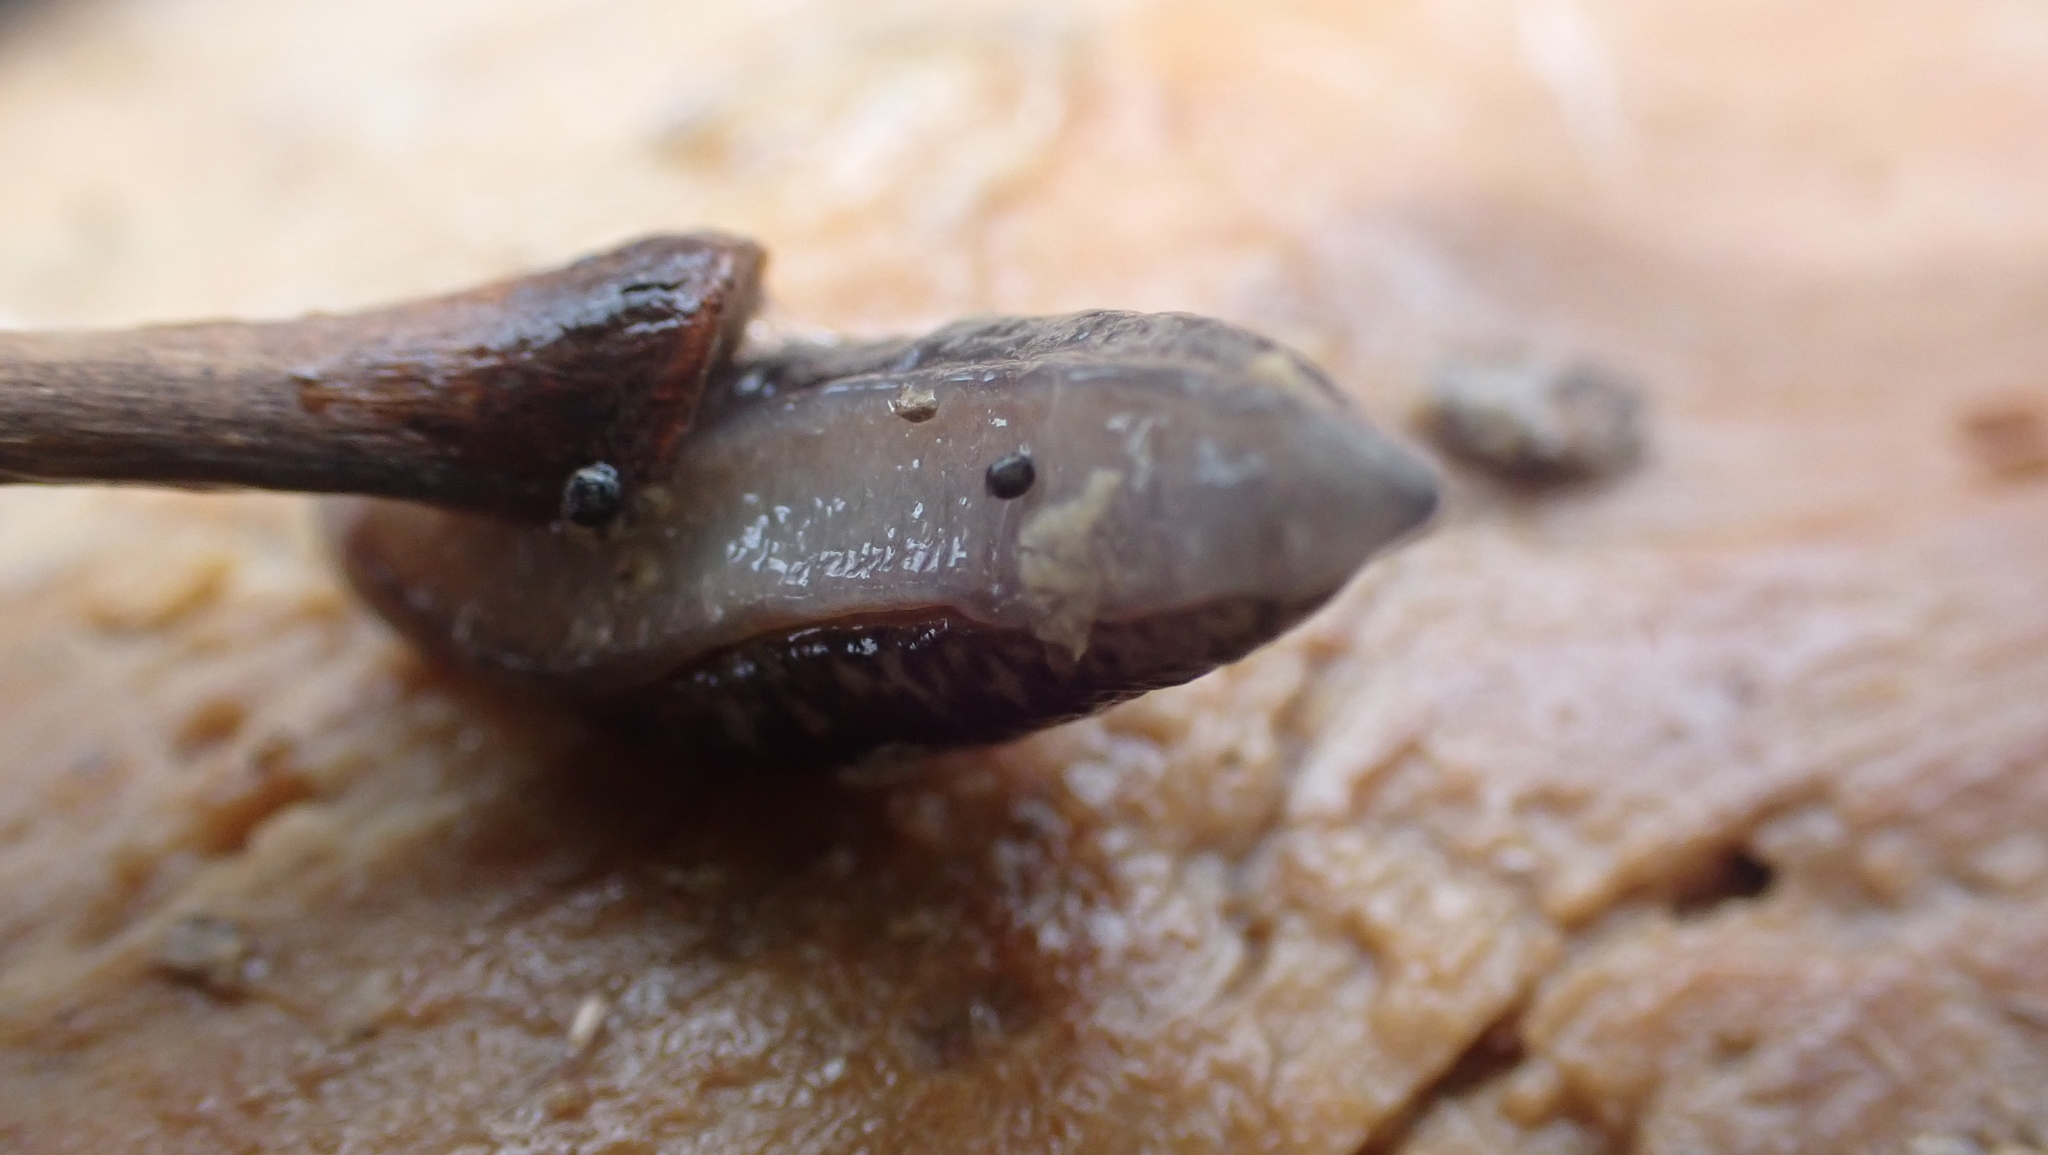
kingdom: Animalia
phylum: Mollusca
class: Gastropoda
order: Stylommatophora
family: Philomycidae
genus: Pallifera
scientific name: Pallifera fosteri
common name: Foster mantleslug
